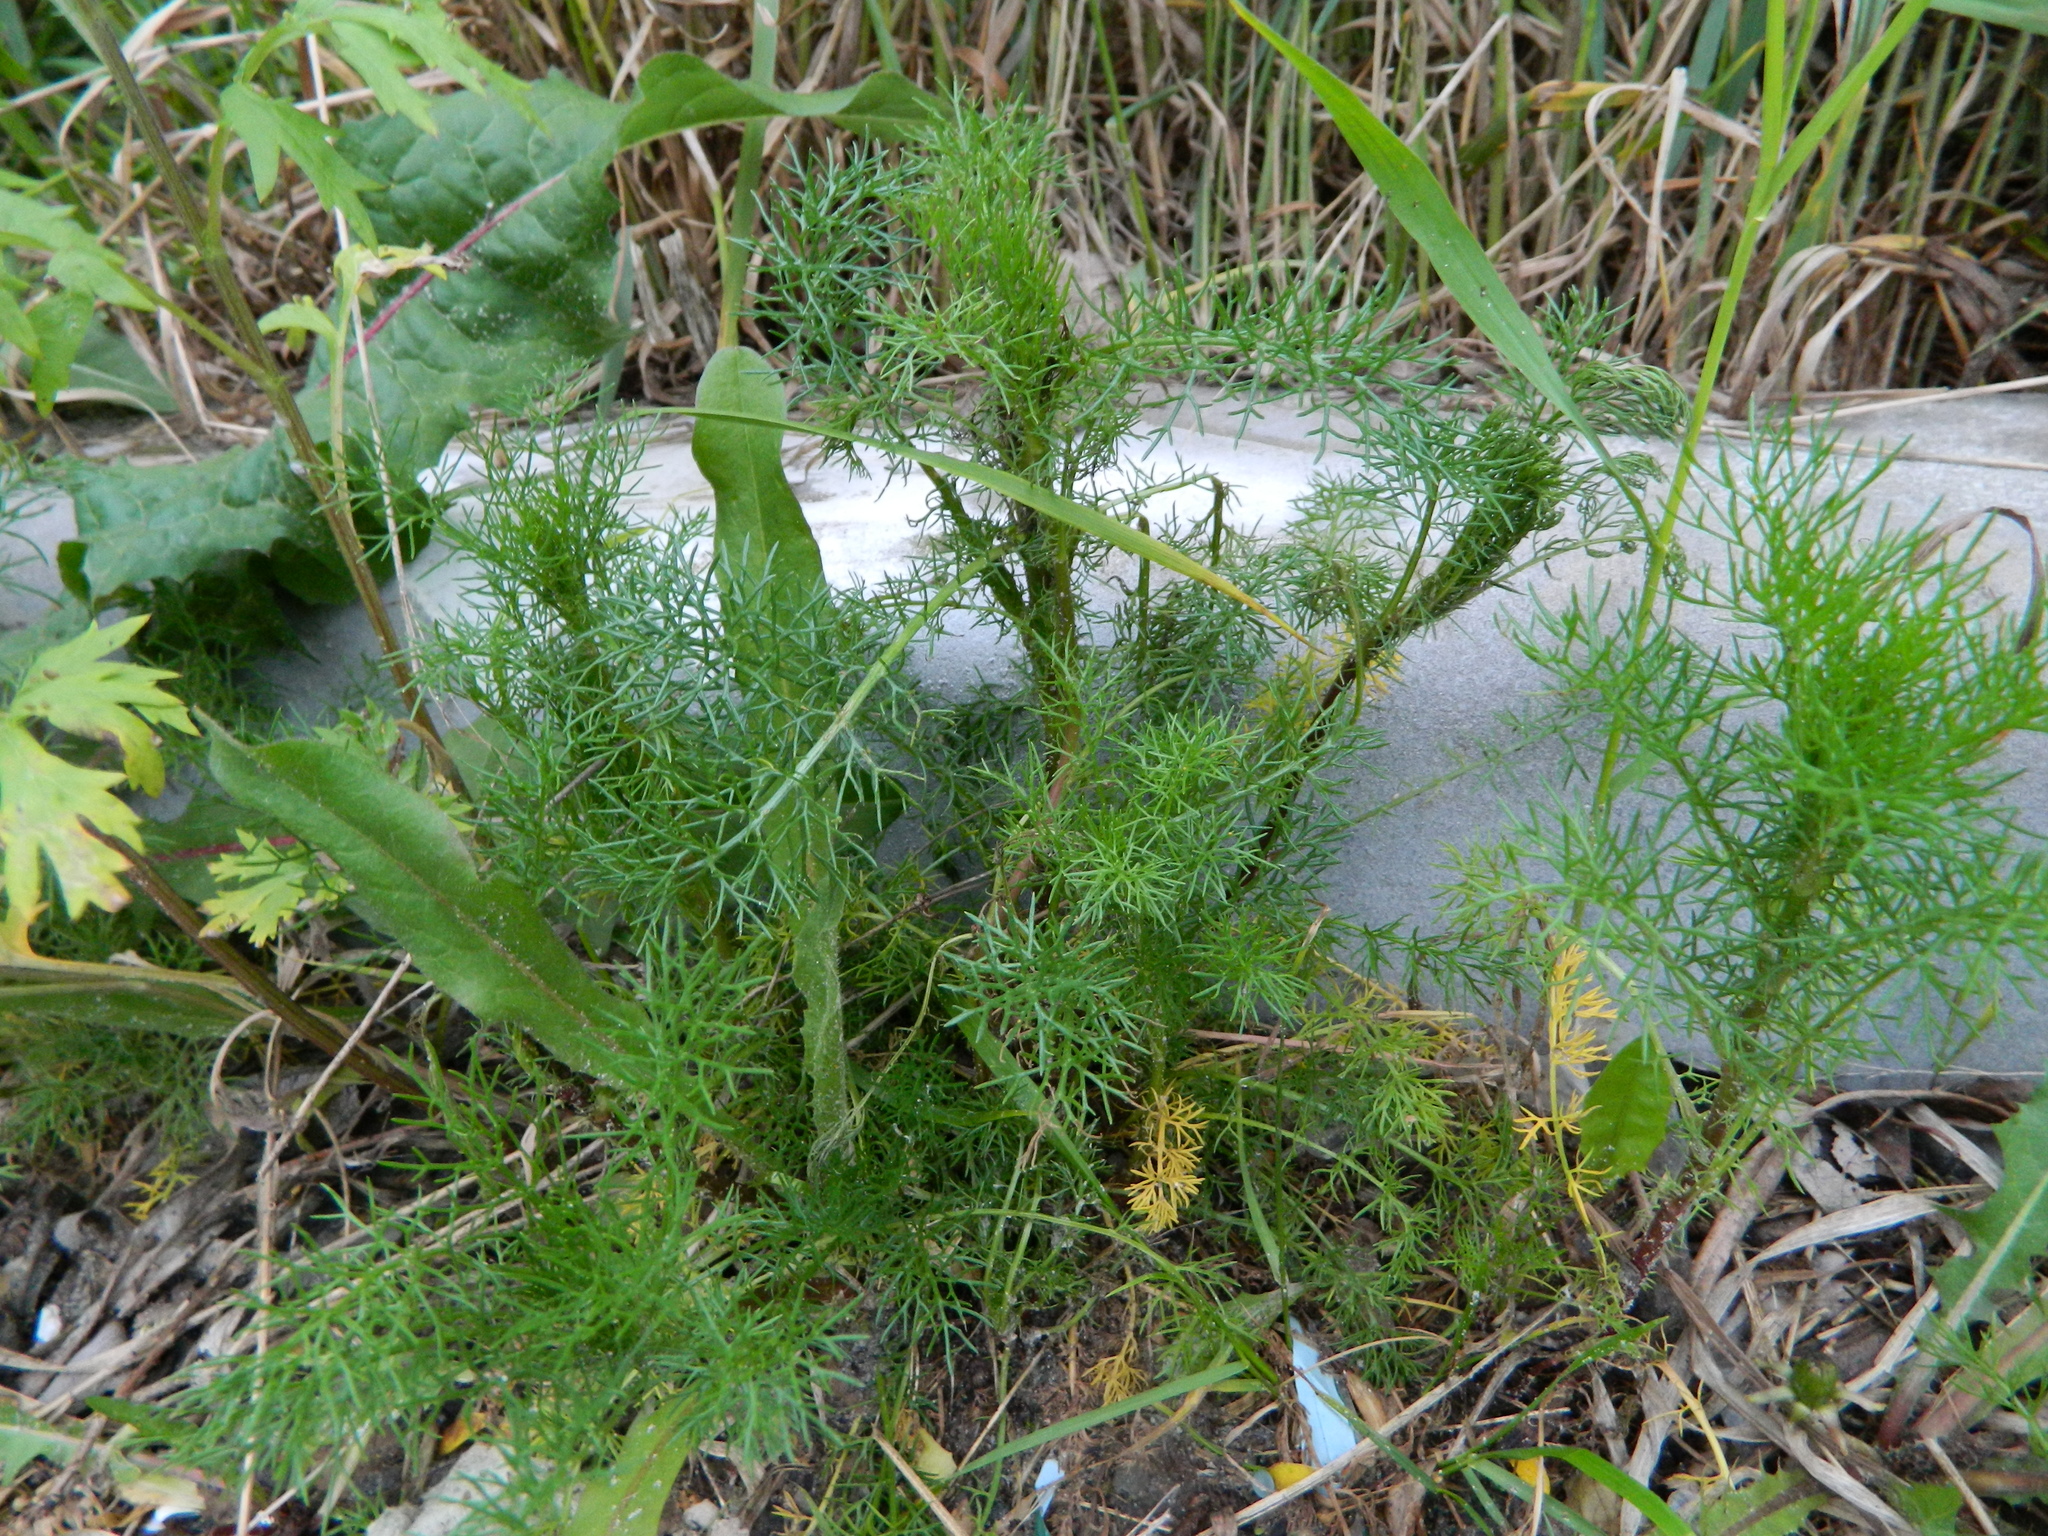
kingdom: Plantae
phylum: Tracheophyta
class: Magnoliopsida
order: Asterales
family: Asteraceae
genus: Tripleurospermum
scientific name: Tripleurospermum inodorum
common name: Scentless mayweed
